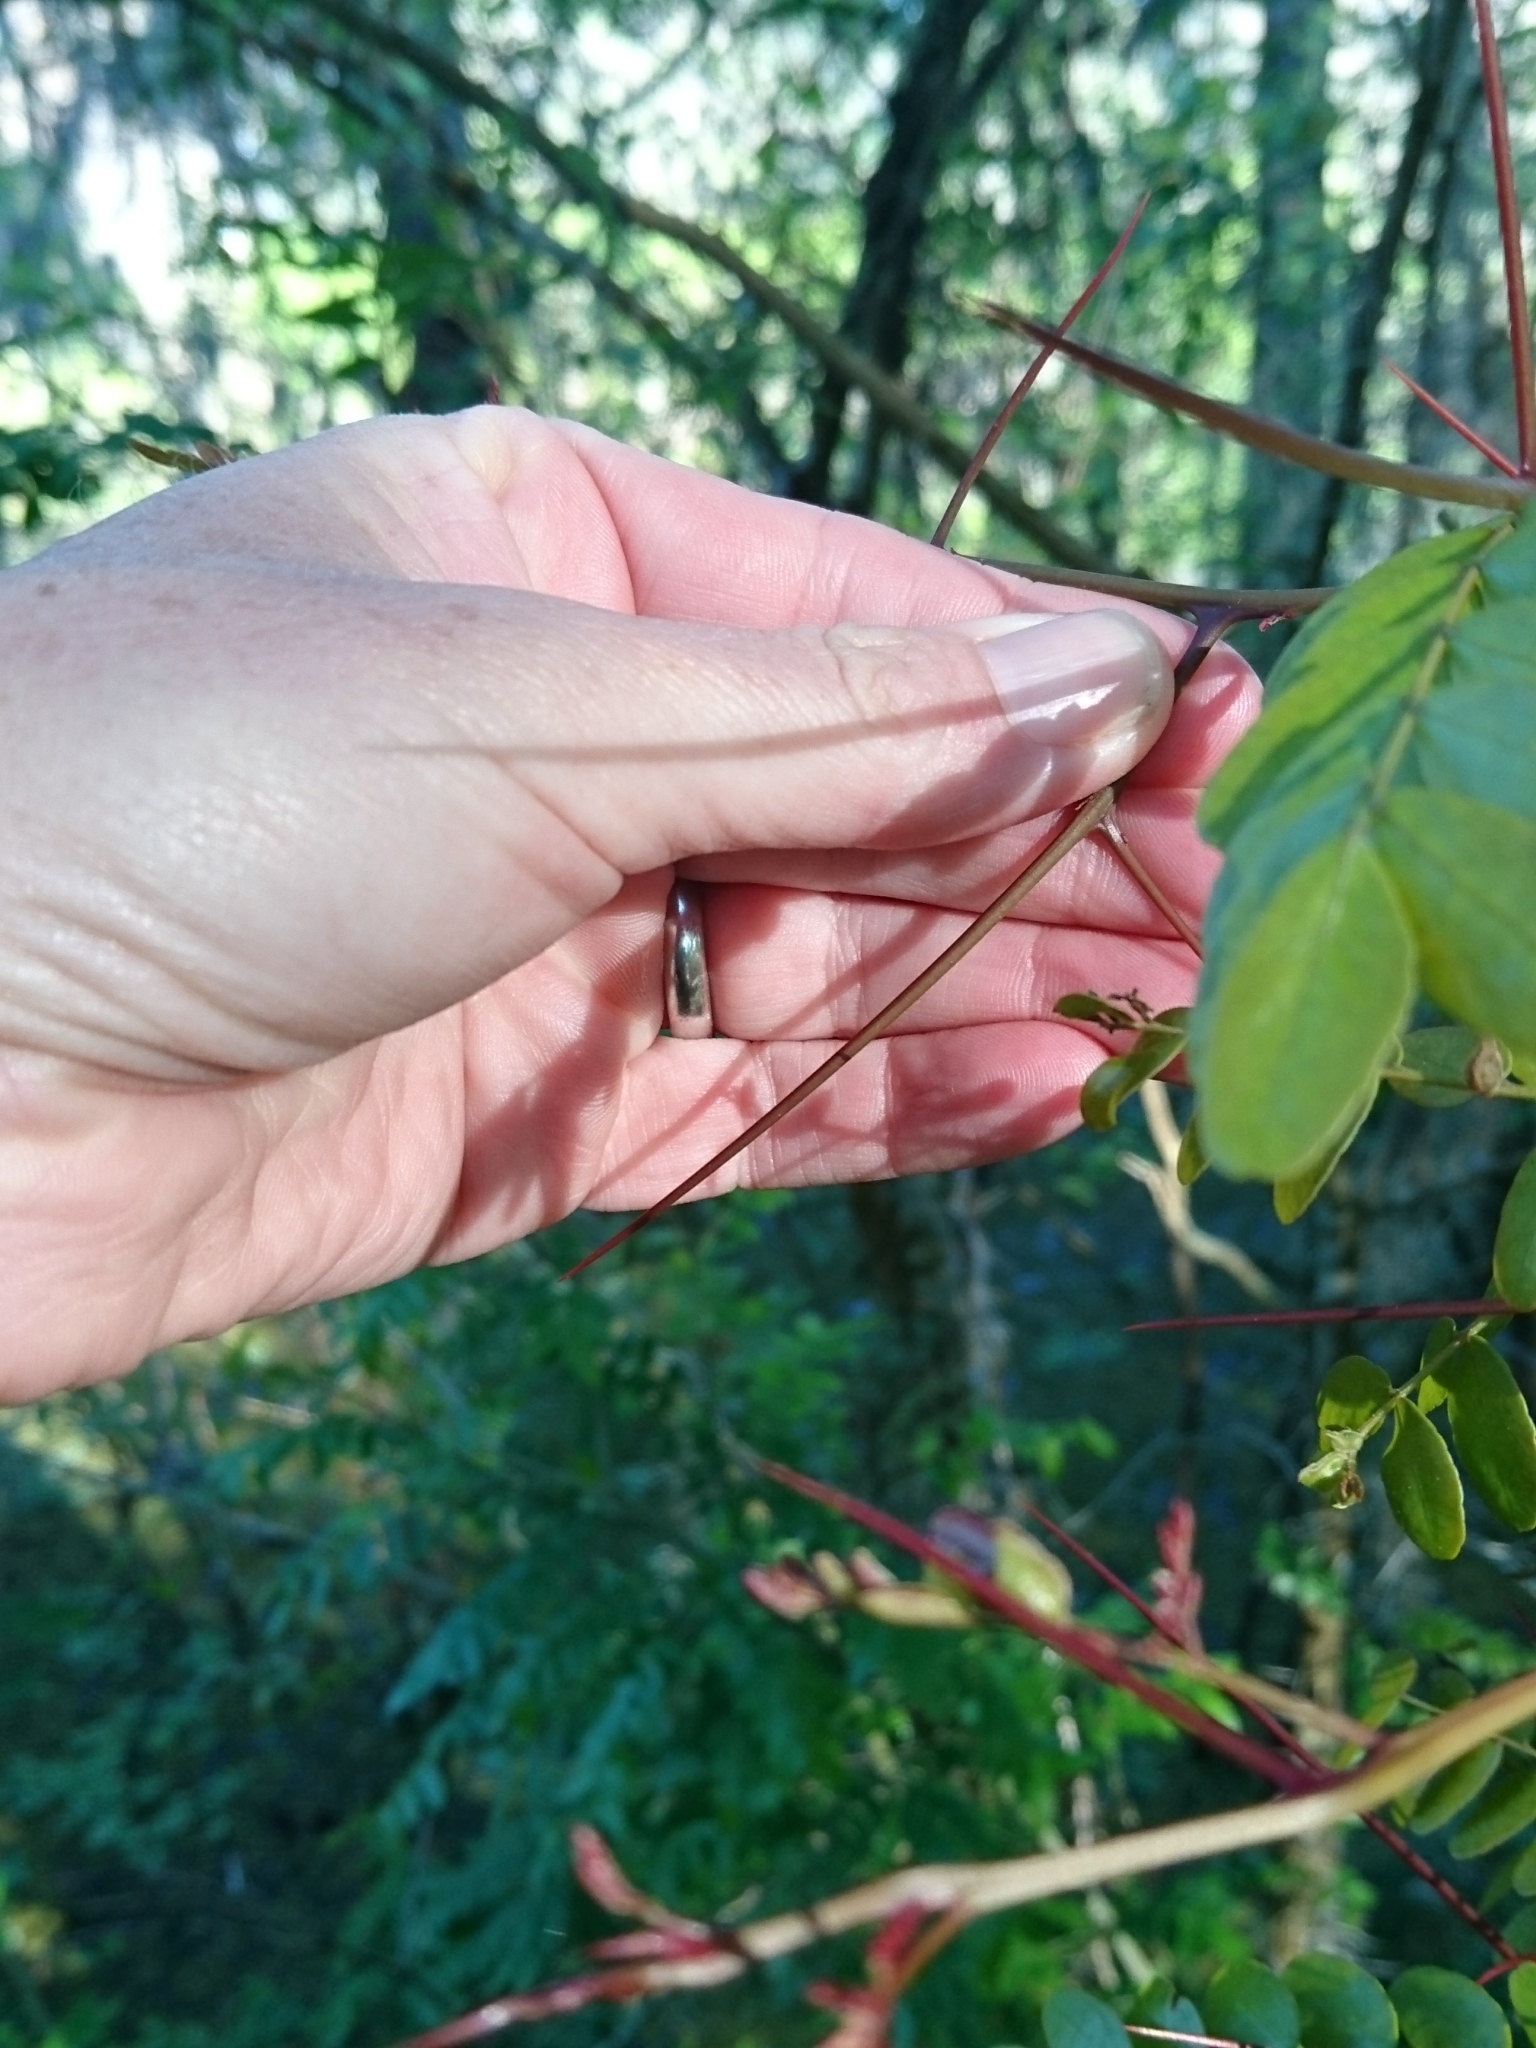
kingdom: Plantae
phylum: Tracheophyta
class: Magnoliopsida
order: Fabales
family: Fabaceae
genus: Gleditsia
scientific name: Gleditsia aquatica
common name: Swamp-locust
